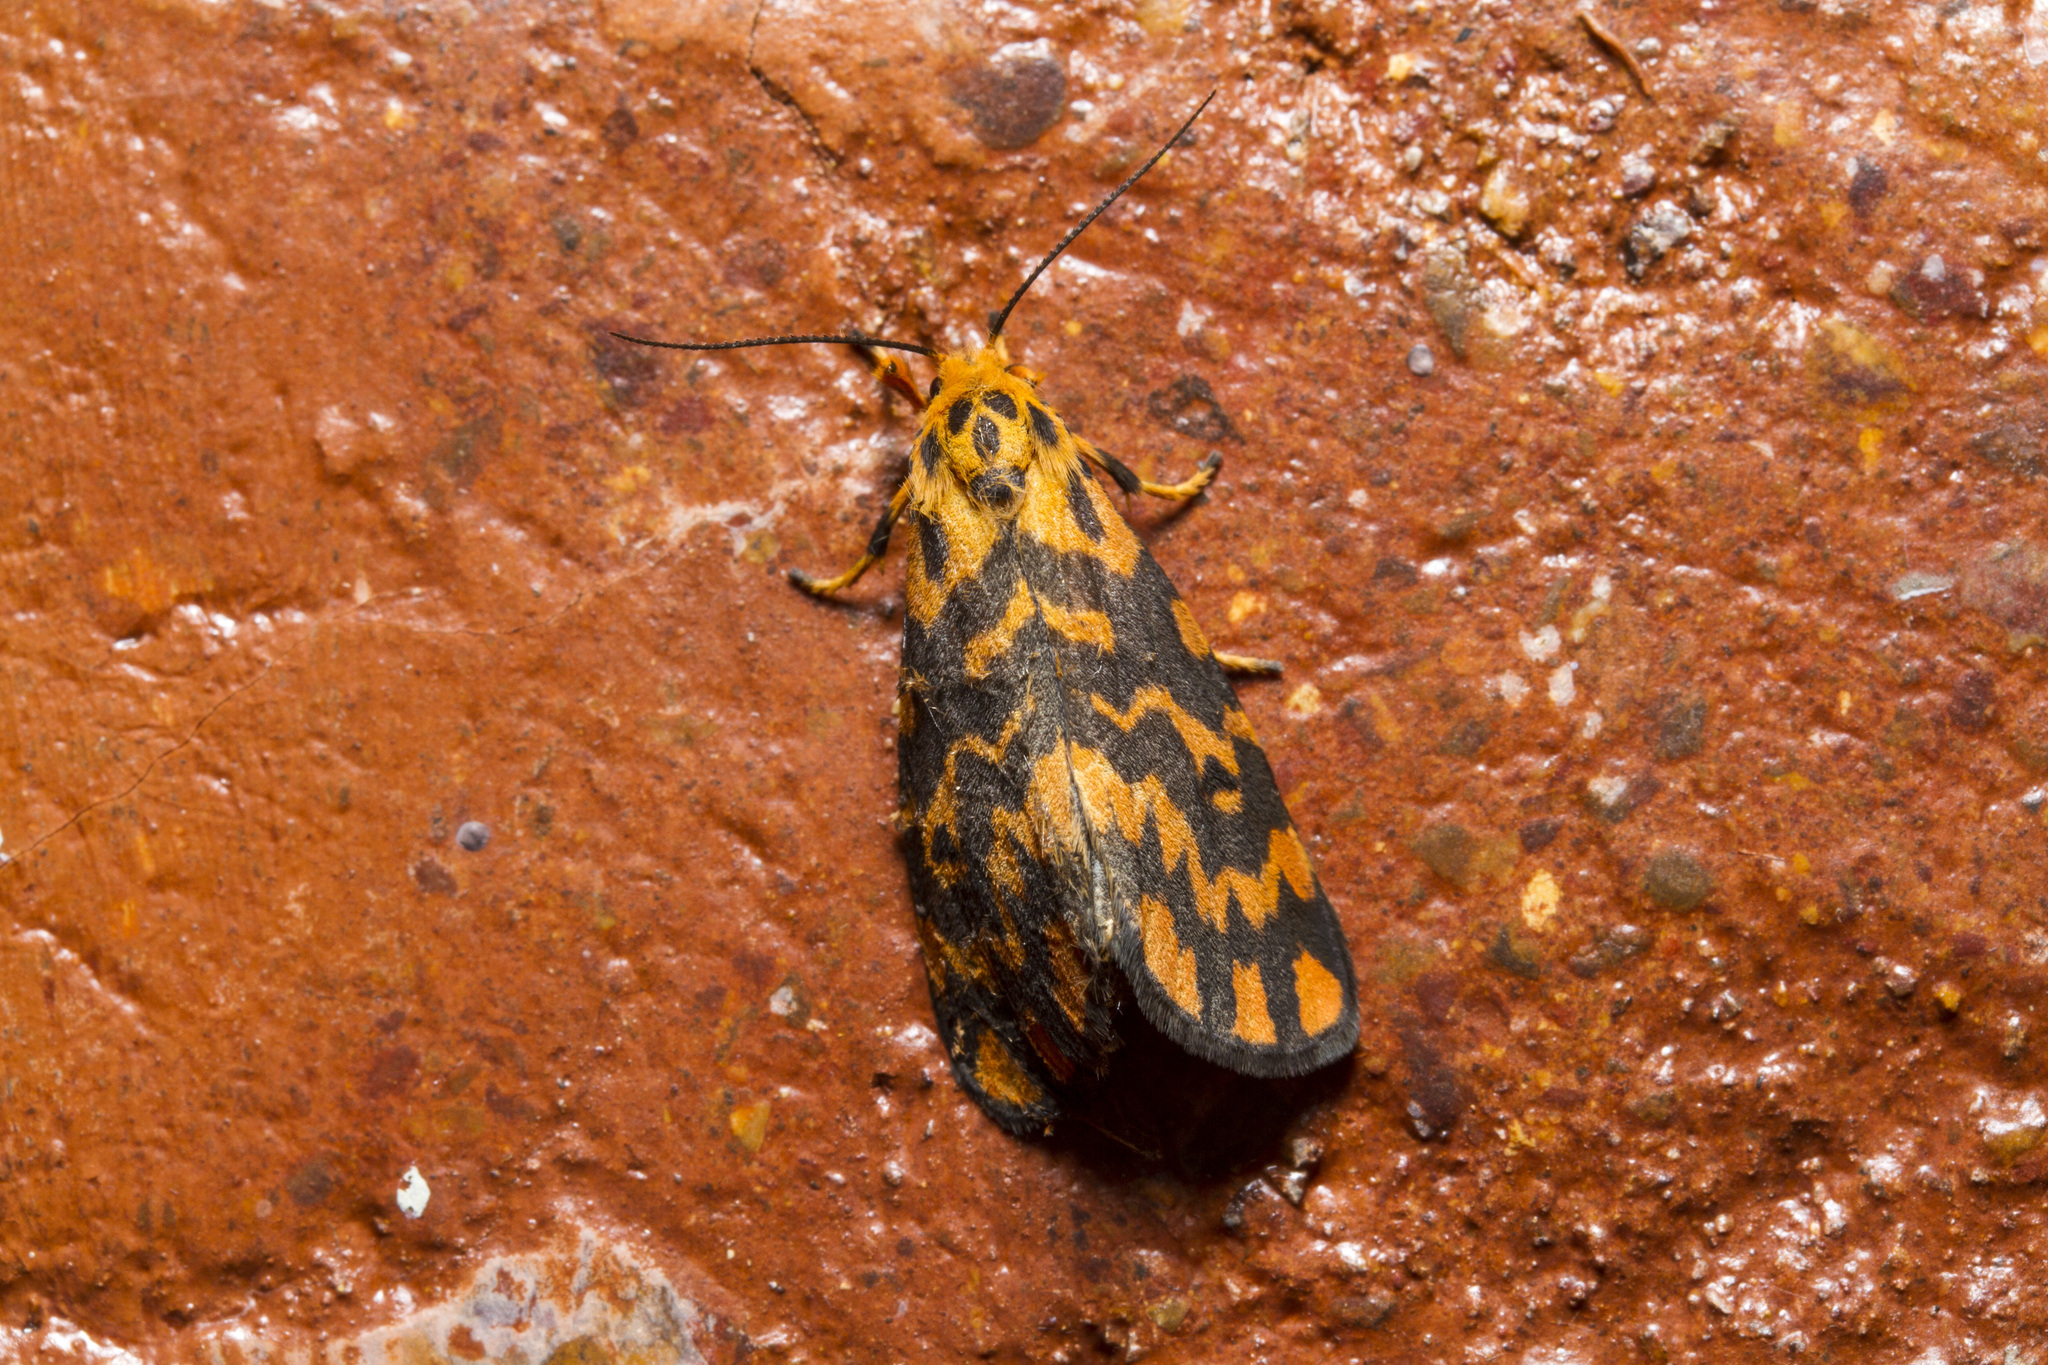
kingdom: Animalia
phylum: Arthropoda
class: Insecta
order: Lepidoptera
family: Erebidae
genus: Nepita
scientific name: Nepita conferta
